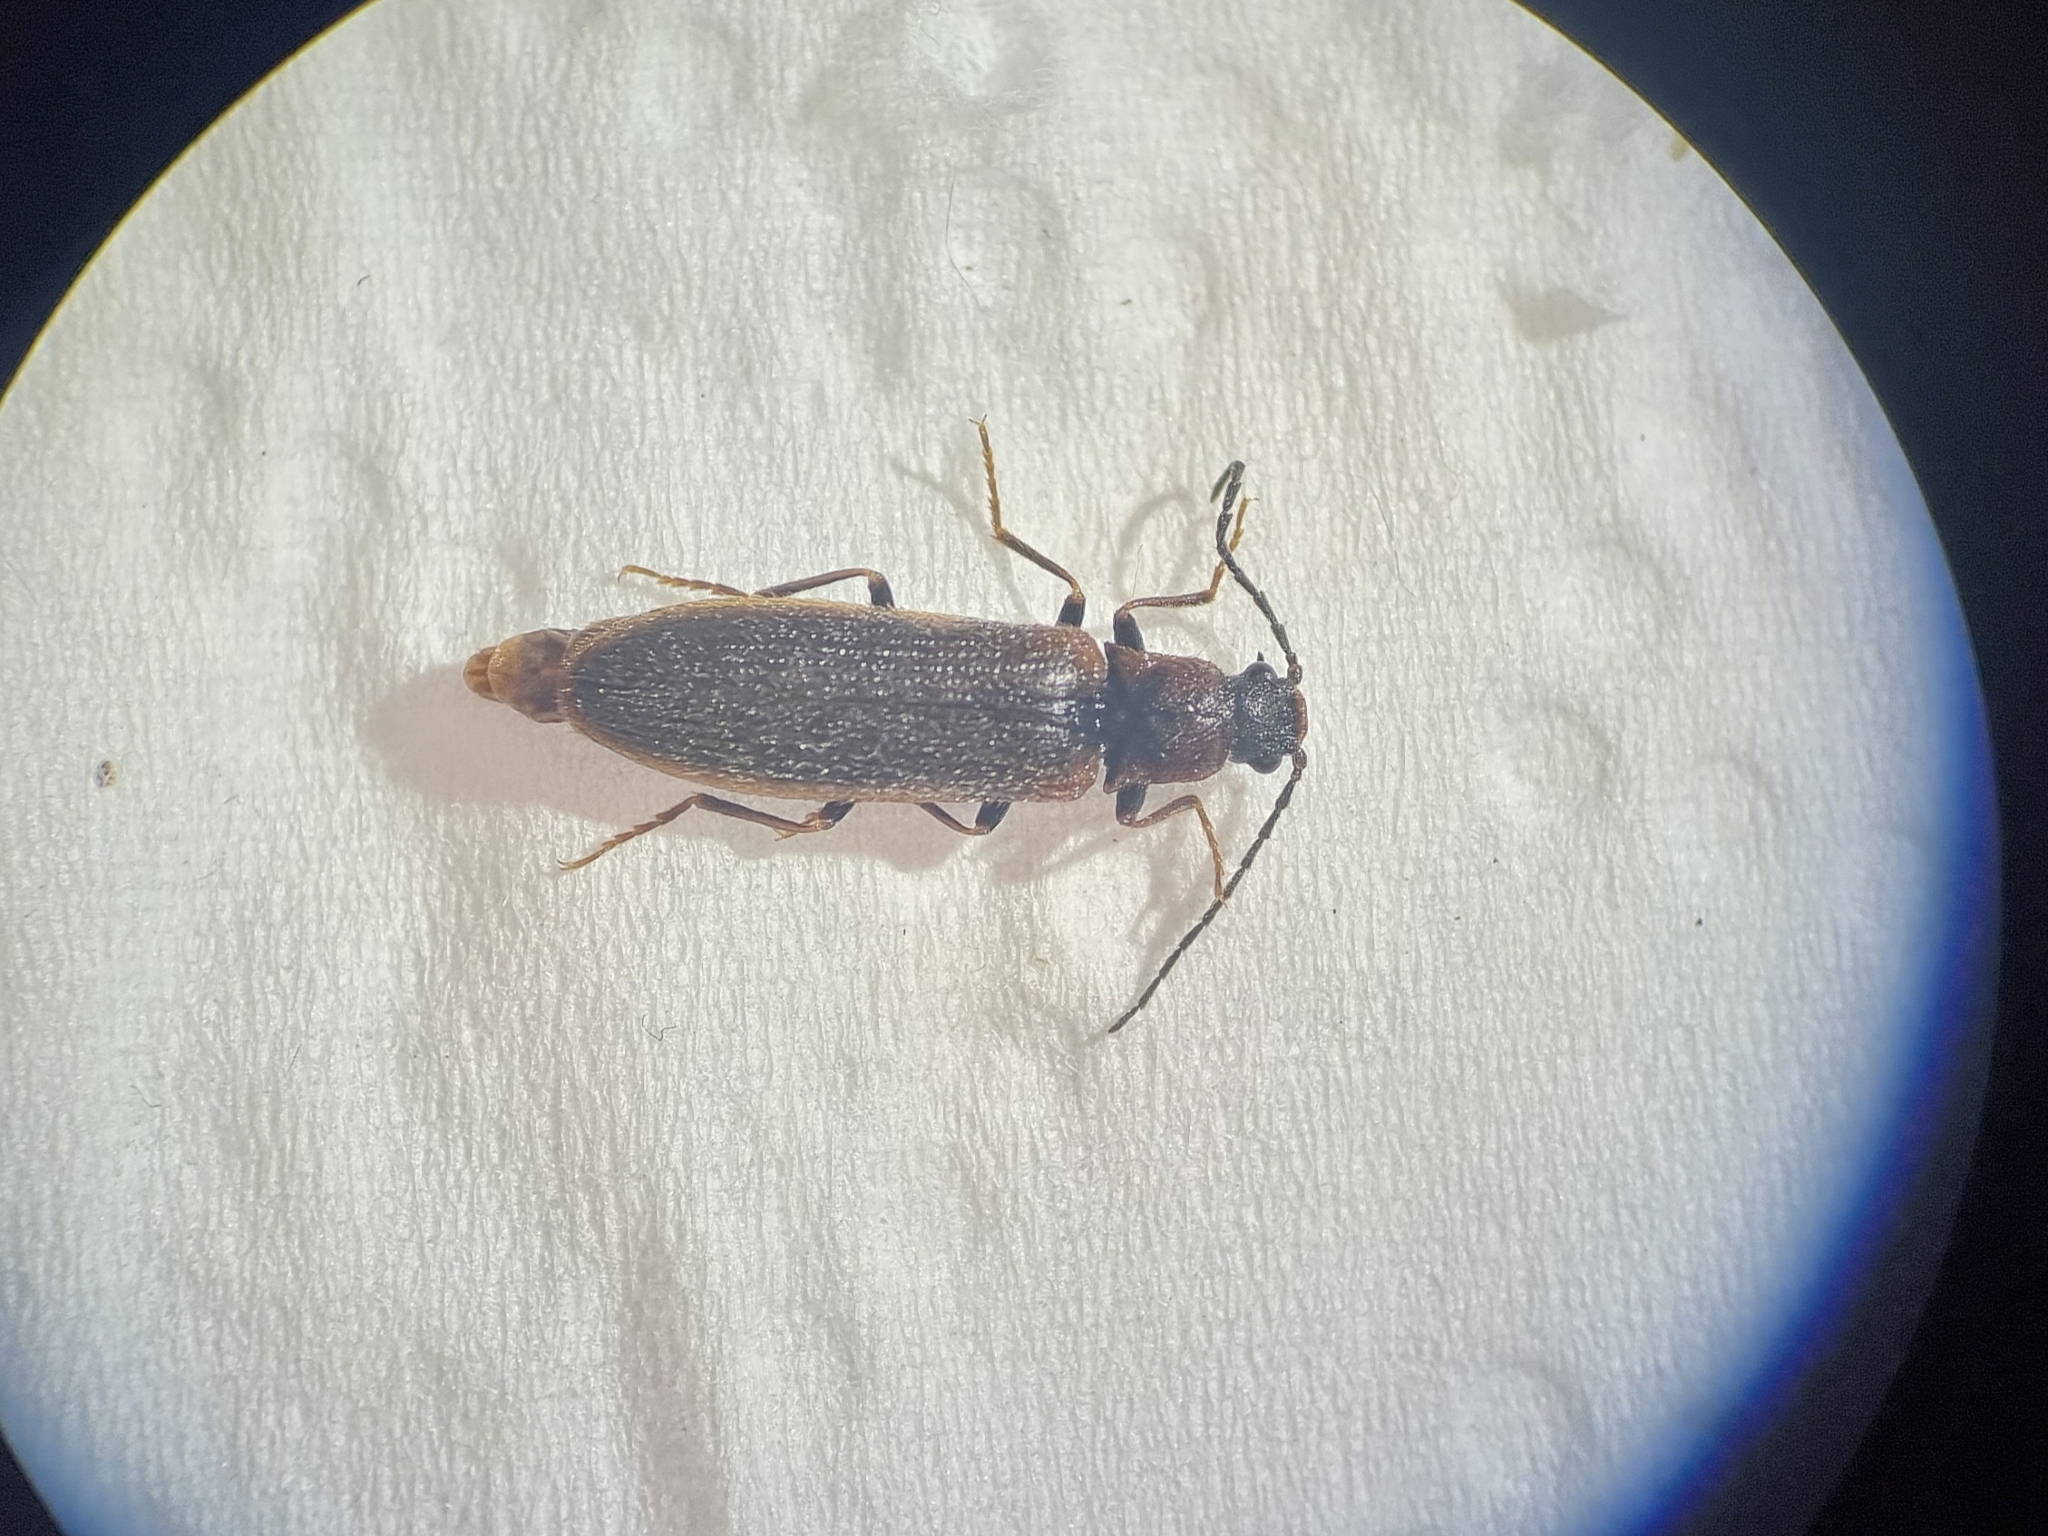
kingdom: Animalia
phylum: Arthropoda
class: Insecta
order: Coleoptera
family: Elateridae
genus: Denticollis
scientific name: Denticollis linearis
